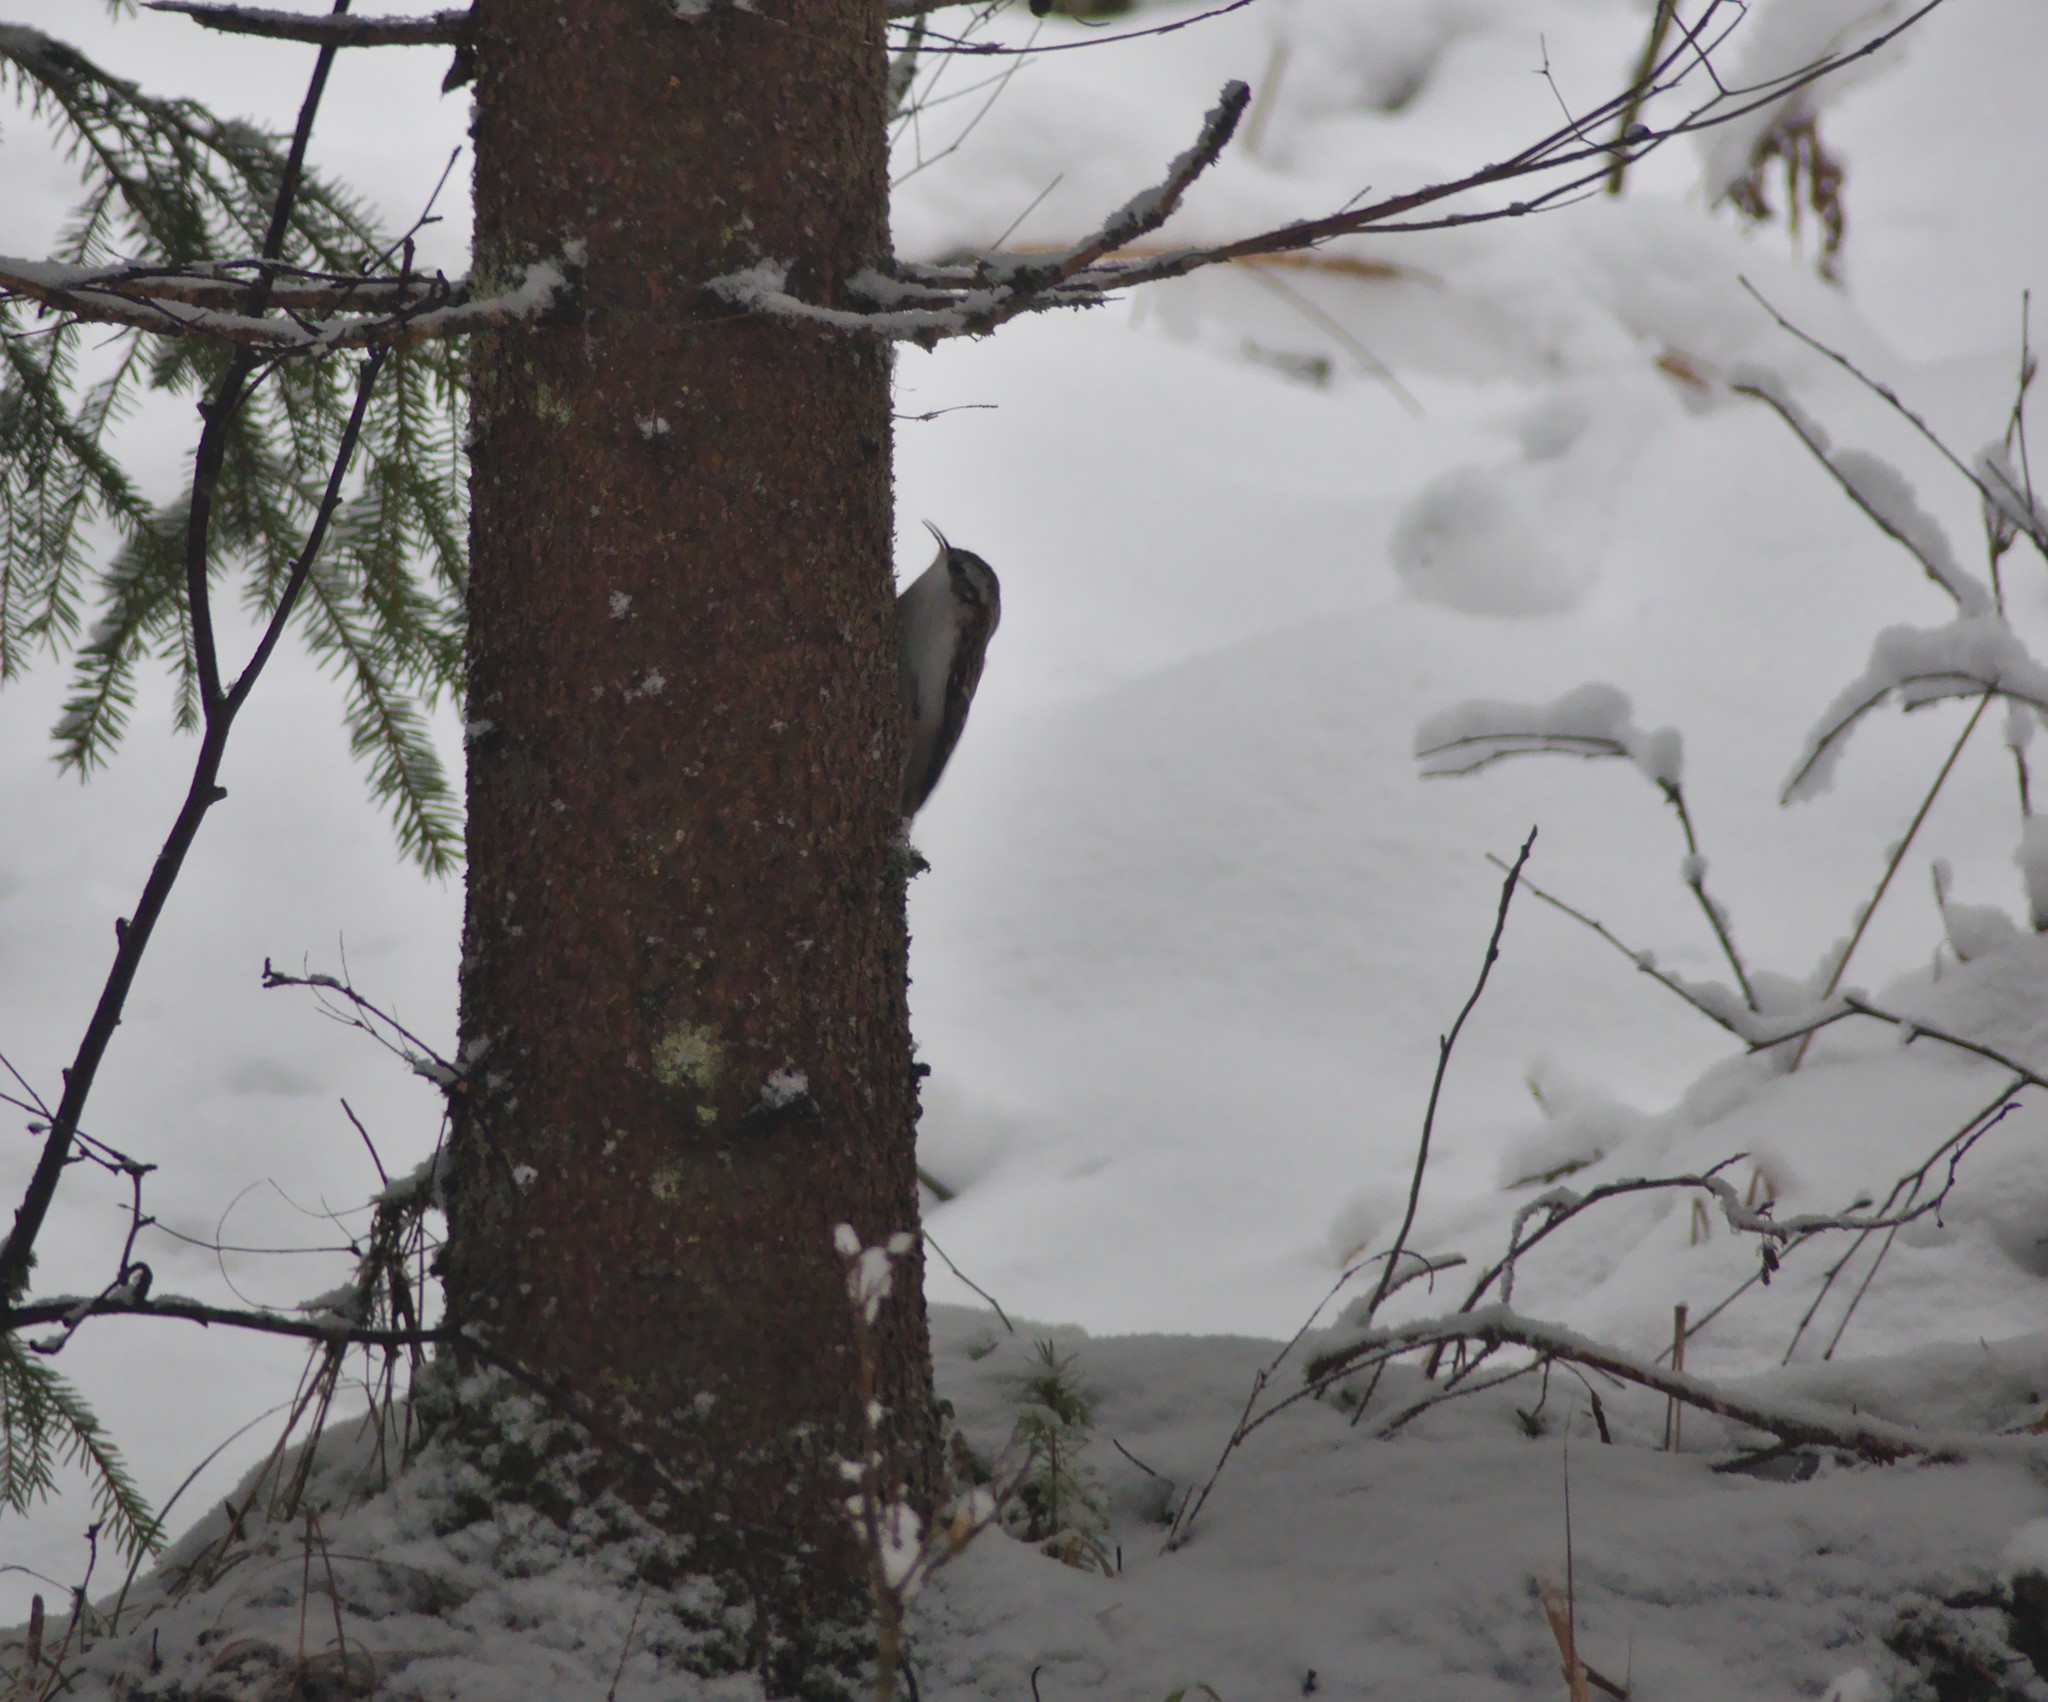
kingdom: Animalia
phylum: Chordata
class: Aves
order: Passeriformes
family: Certhiidae
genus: Certhia
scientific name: Certhia familiaris
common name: Eurasian treecreeper
